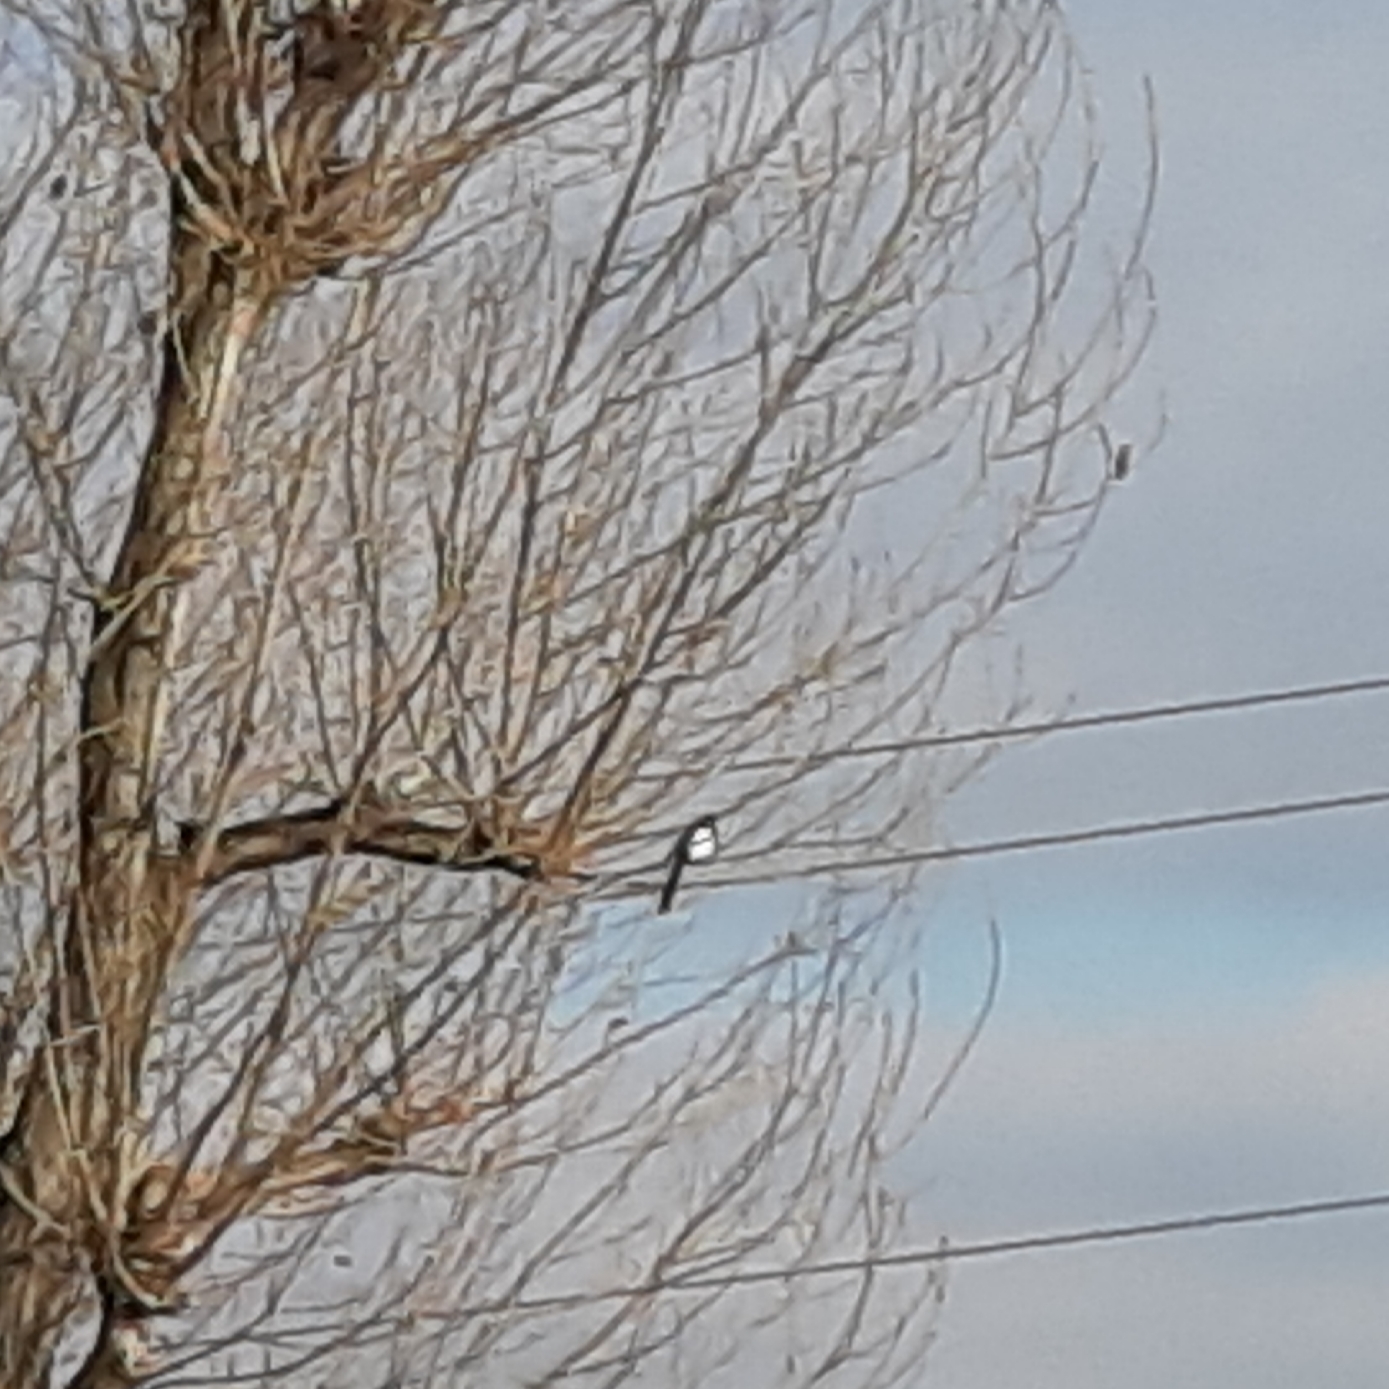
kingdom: Animalia
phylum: Chordata
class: Aves
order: Passeriformes
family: Corvidae
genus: Pica
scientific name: Pica pica
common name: Eurasian magpie
